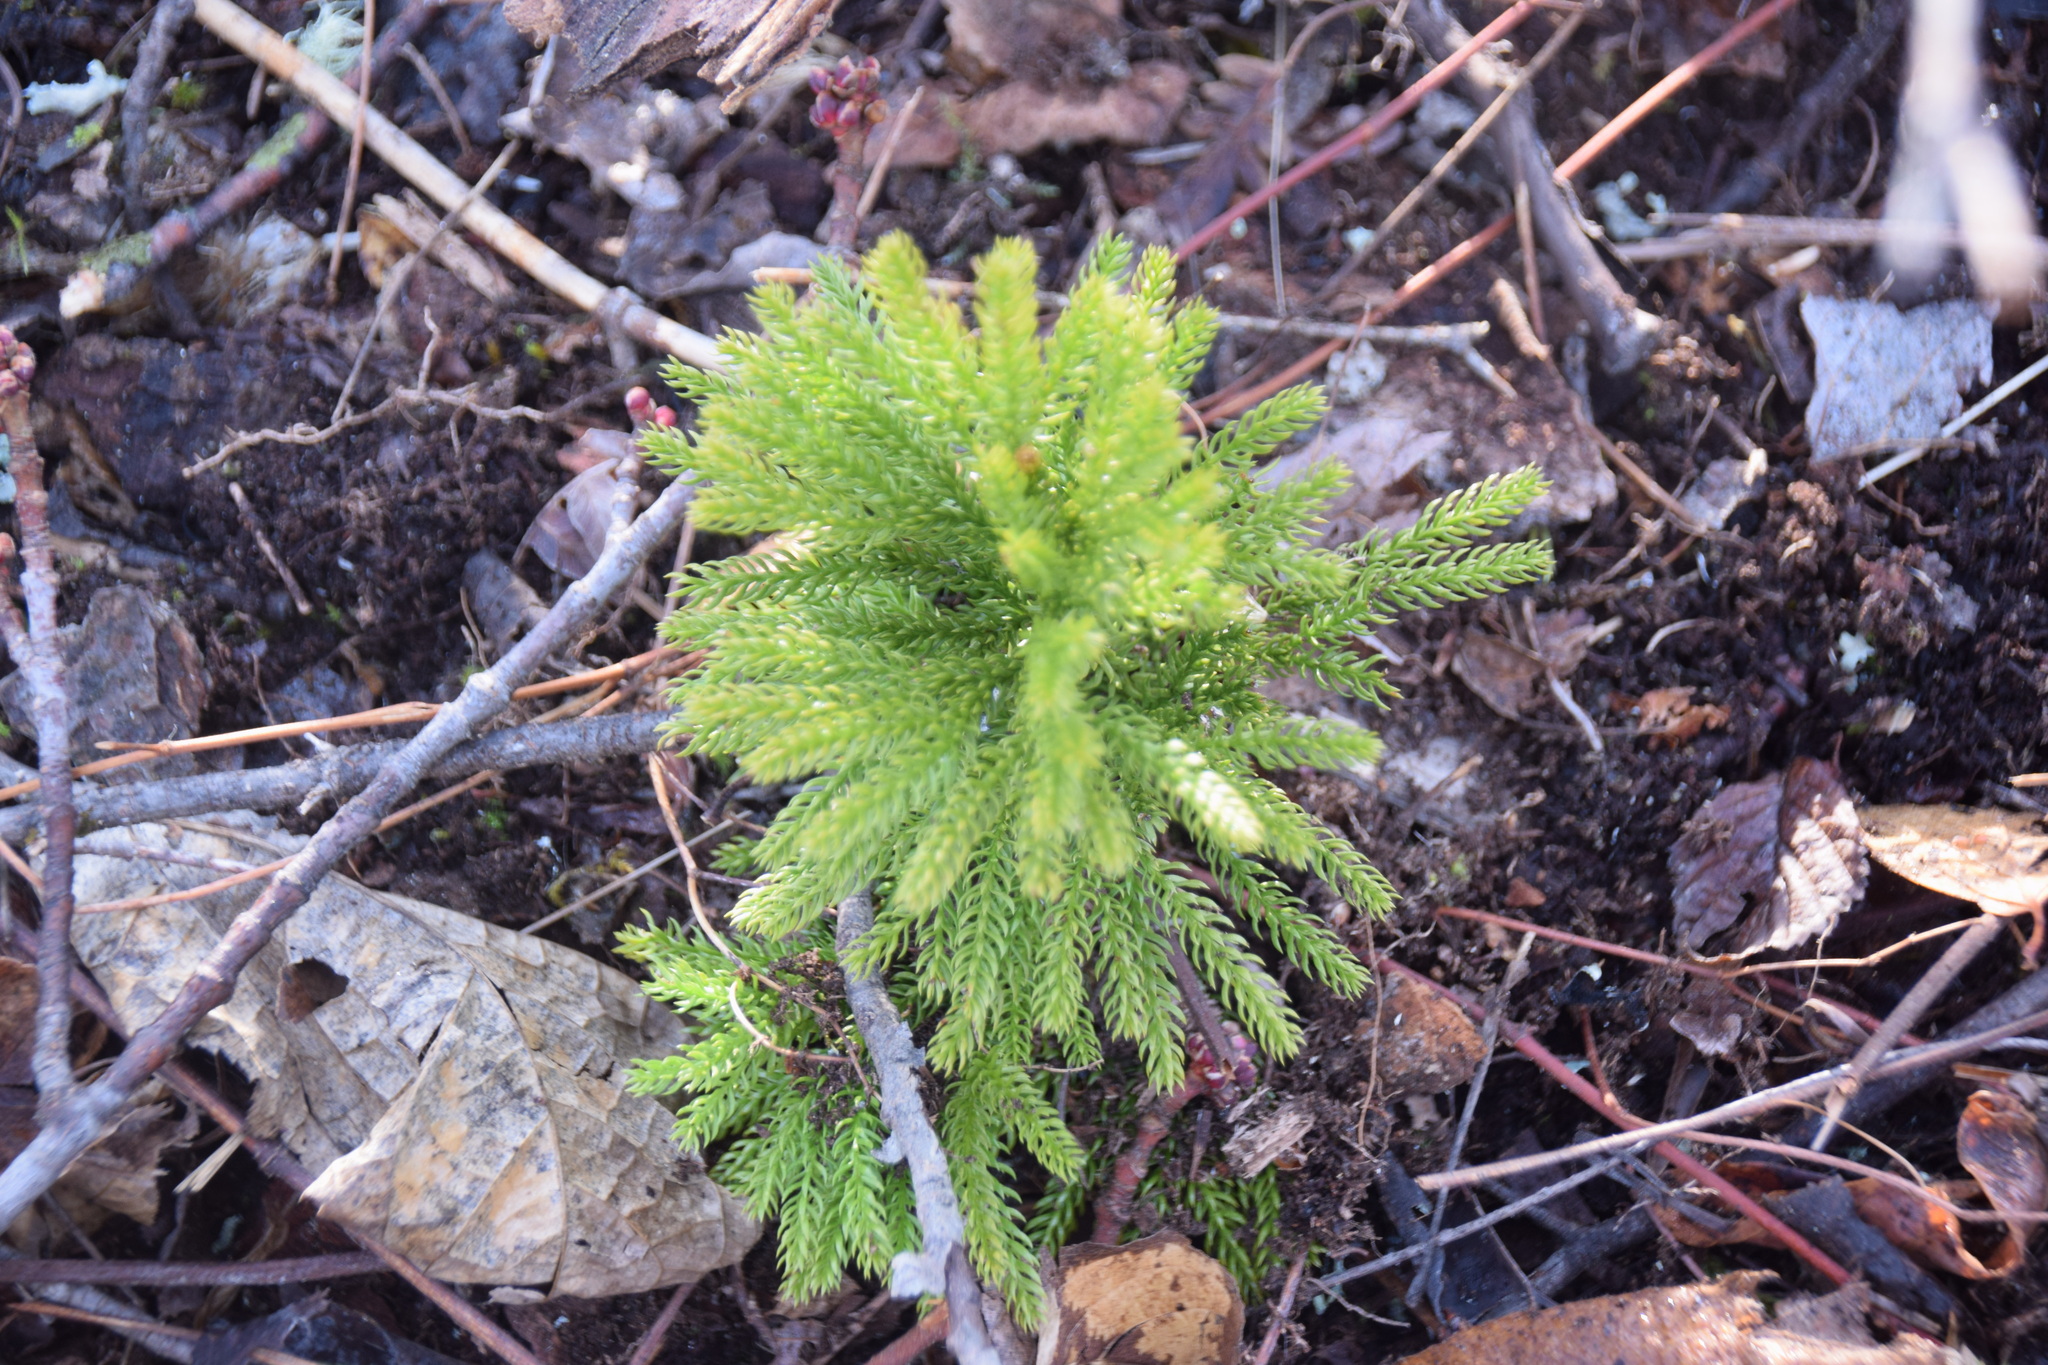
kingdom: Plantae
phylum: Tracheophyta
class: Lycopodiopsida
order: Lycopodiales
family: Lycopodiaceae
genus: Dendrolycopodium
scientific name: Dendrolycopodium dendroideum
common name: Northern tree-clubmoss
